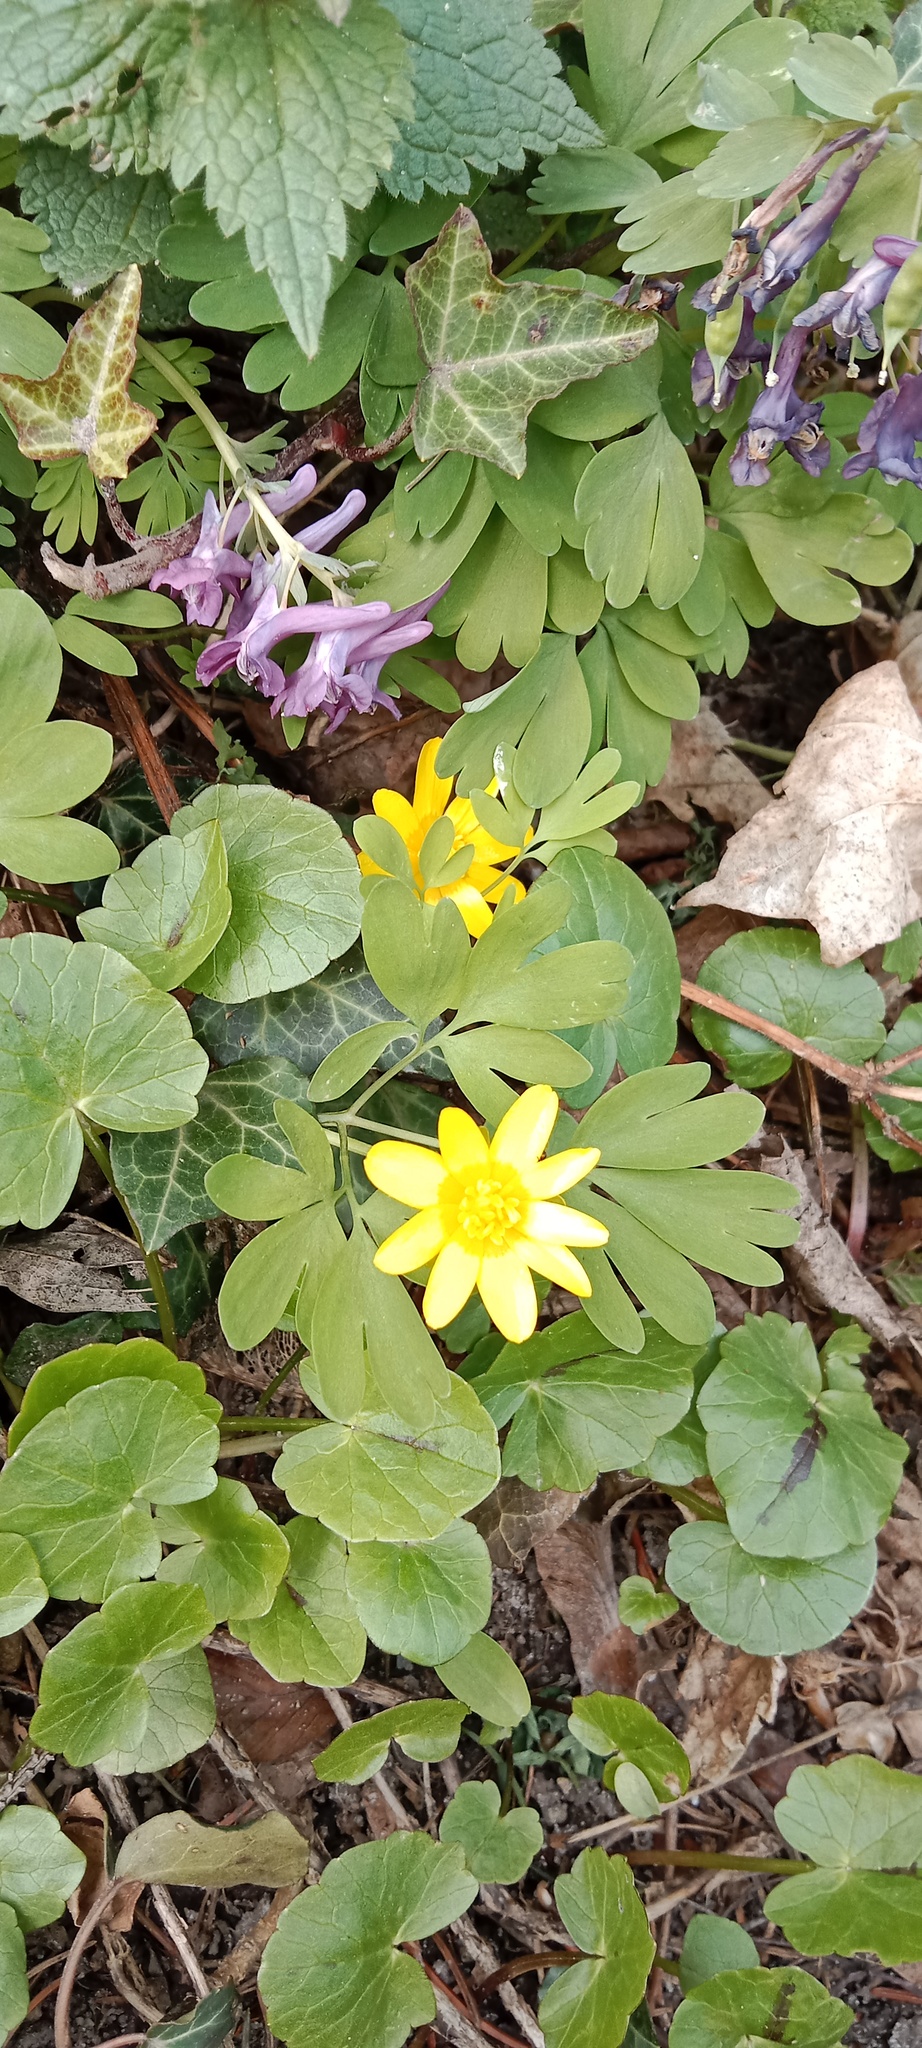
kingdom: Plantae
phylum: Tracheophyta
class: Magnoliopsida
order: Ranunculales
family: Ranunculaceae
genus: Ficaria
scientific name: Ficaria verna
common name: Lesser celandine
